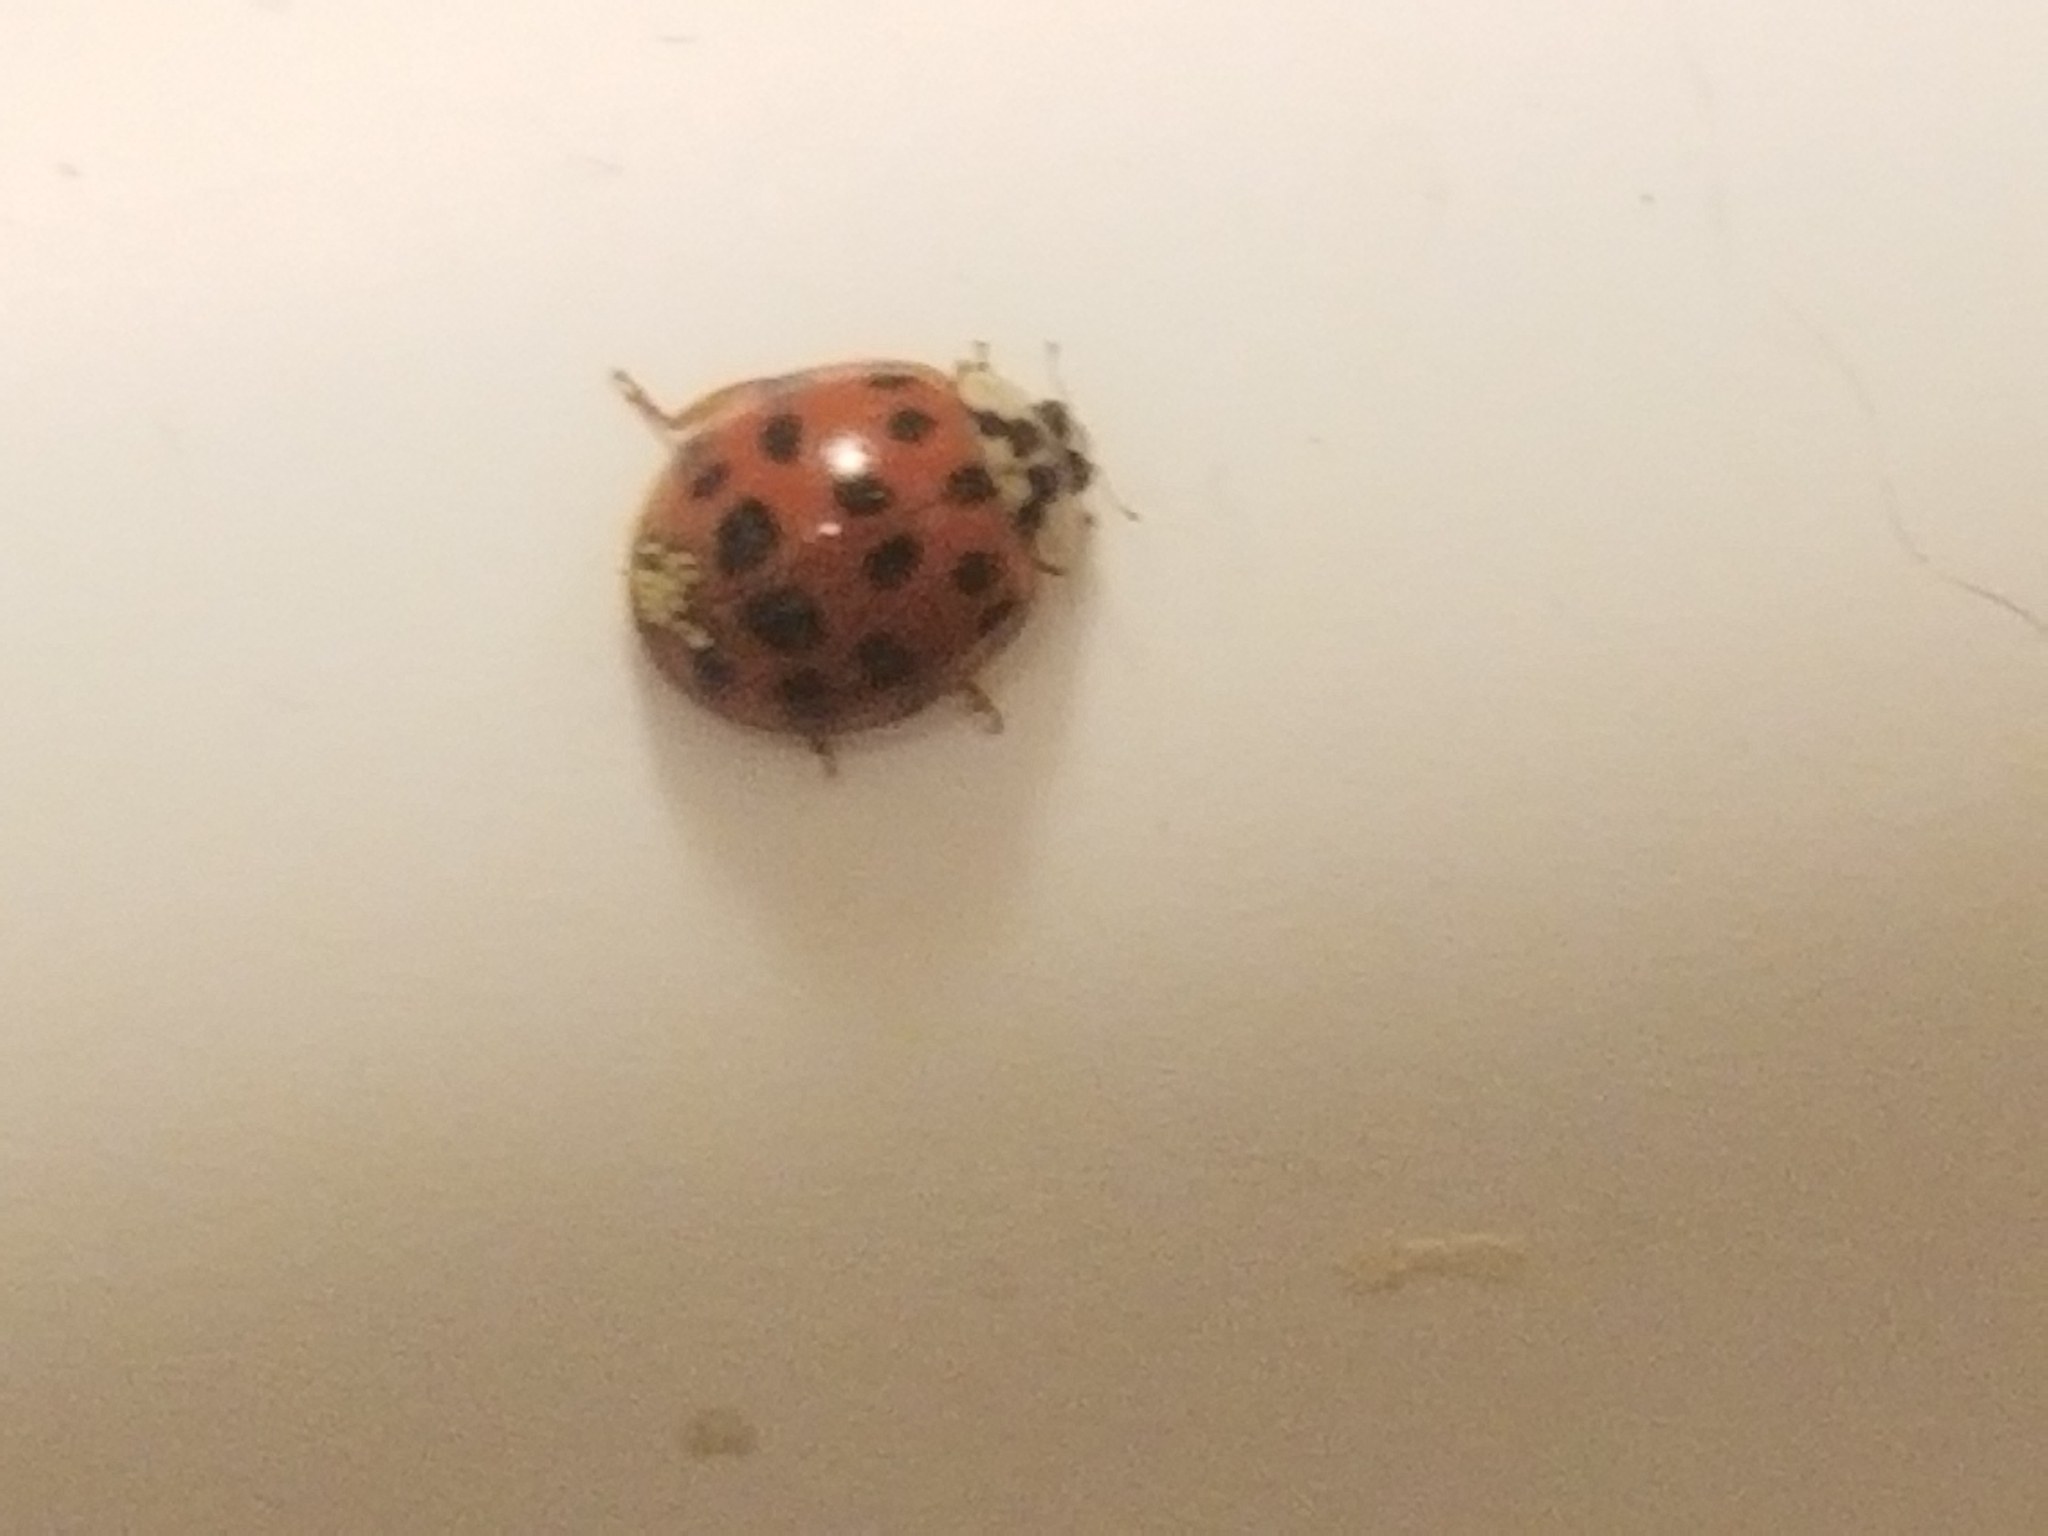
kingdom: Animalia
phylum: Arthropoda
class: Insecta
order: Coleoptera
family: Coccinellidae
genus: Harmonia
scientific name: Harmonia axyridis
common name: Harlequin ladybird
